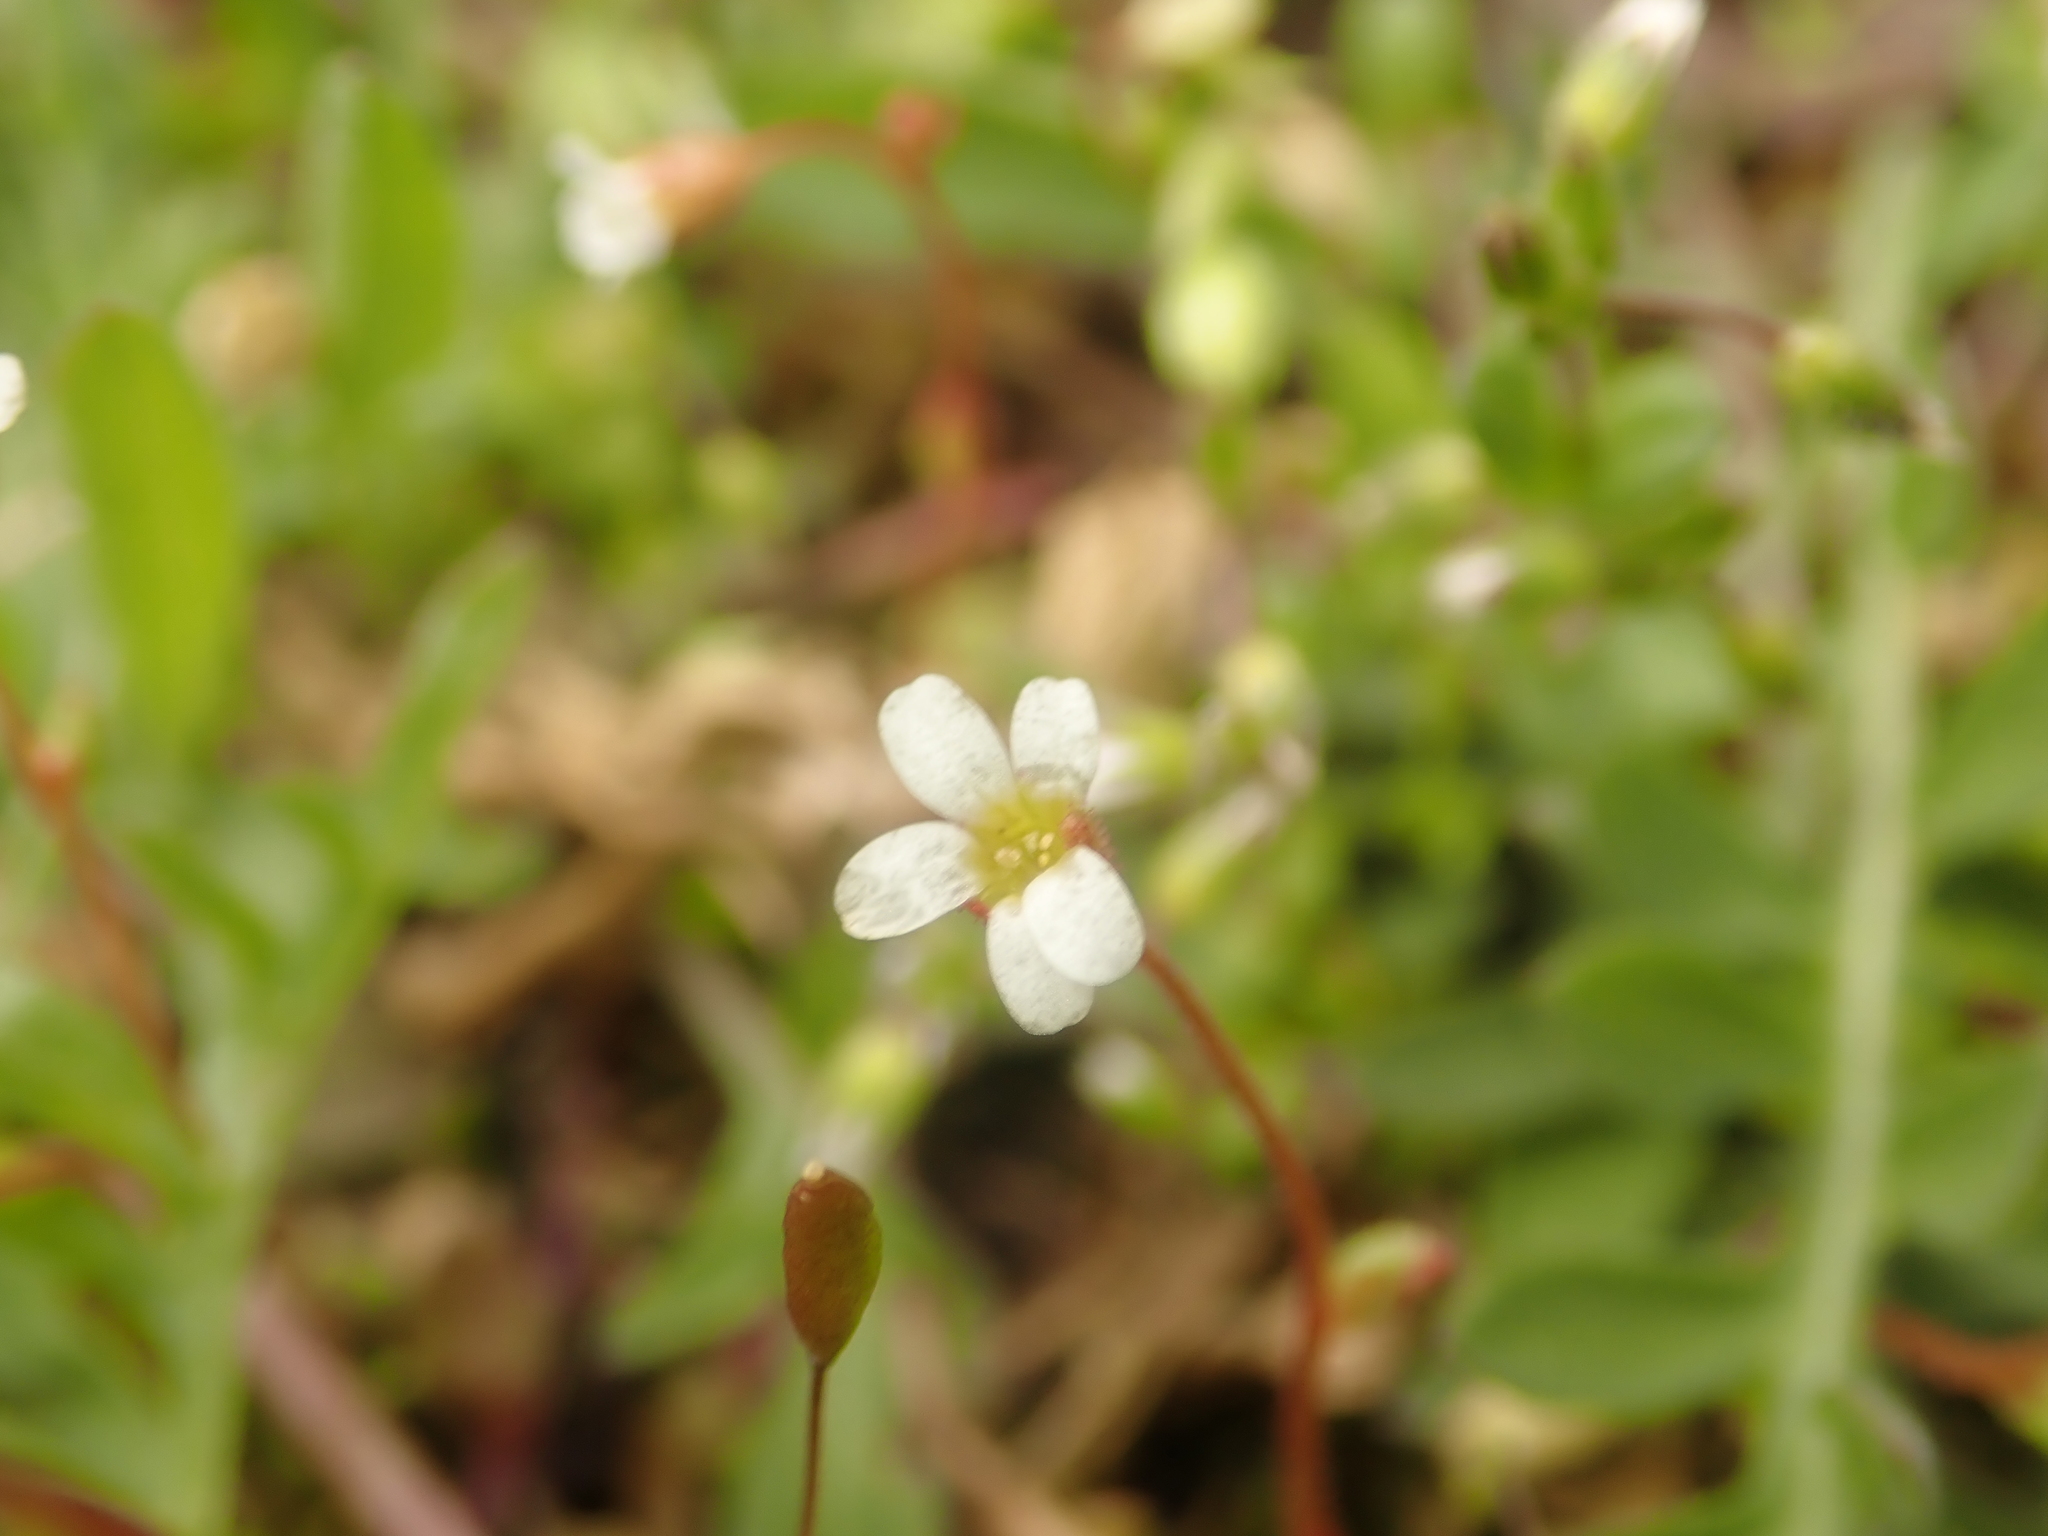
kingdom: Plantae
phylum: Tracheophyta
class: Magnoliopsida
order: Saxifragales
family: Saxifragaceae
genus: Saxifraga
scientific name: Saxifraga tridactylites
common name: Rue-leaved saxifrage
